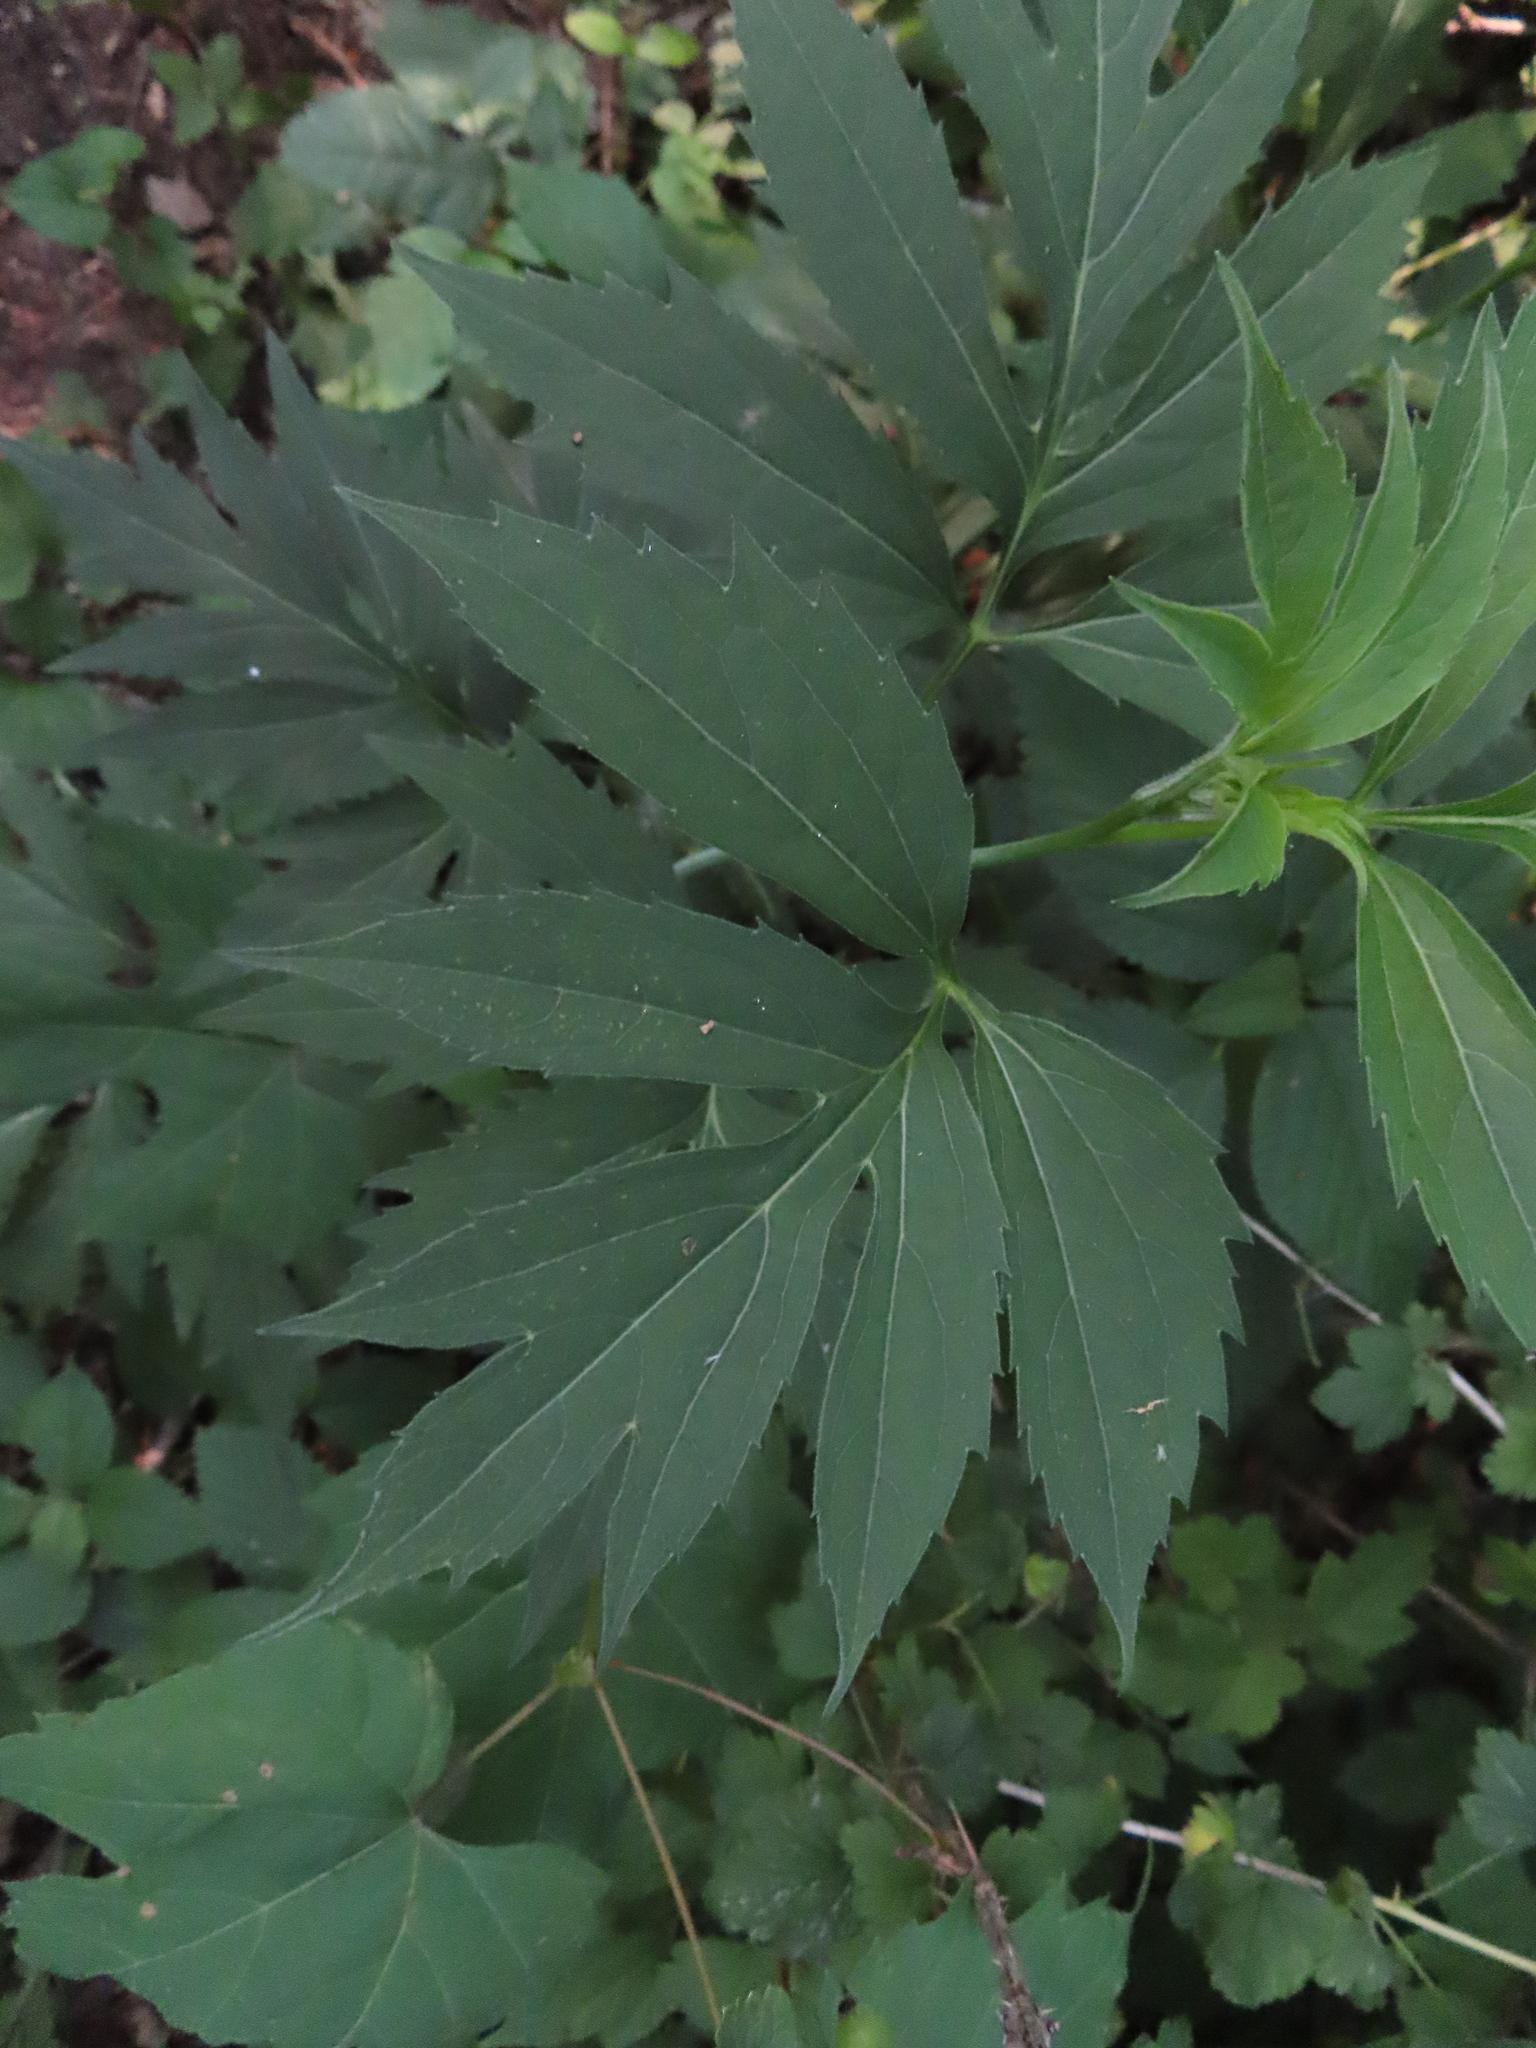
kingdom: Plantae
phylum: Tracheophyta
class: Magnoliopsida
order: Asterales
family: Asteraceae
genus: Rudbeckia
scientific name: Rudbeckia laciniata
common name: Coneflower
